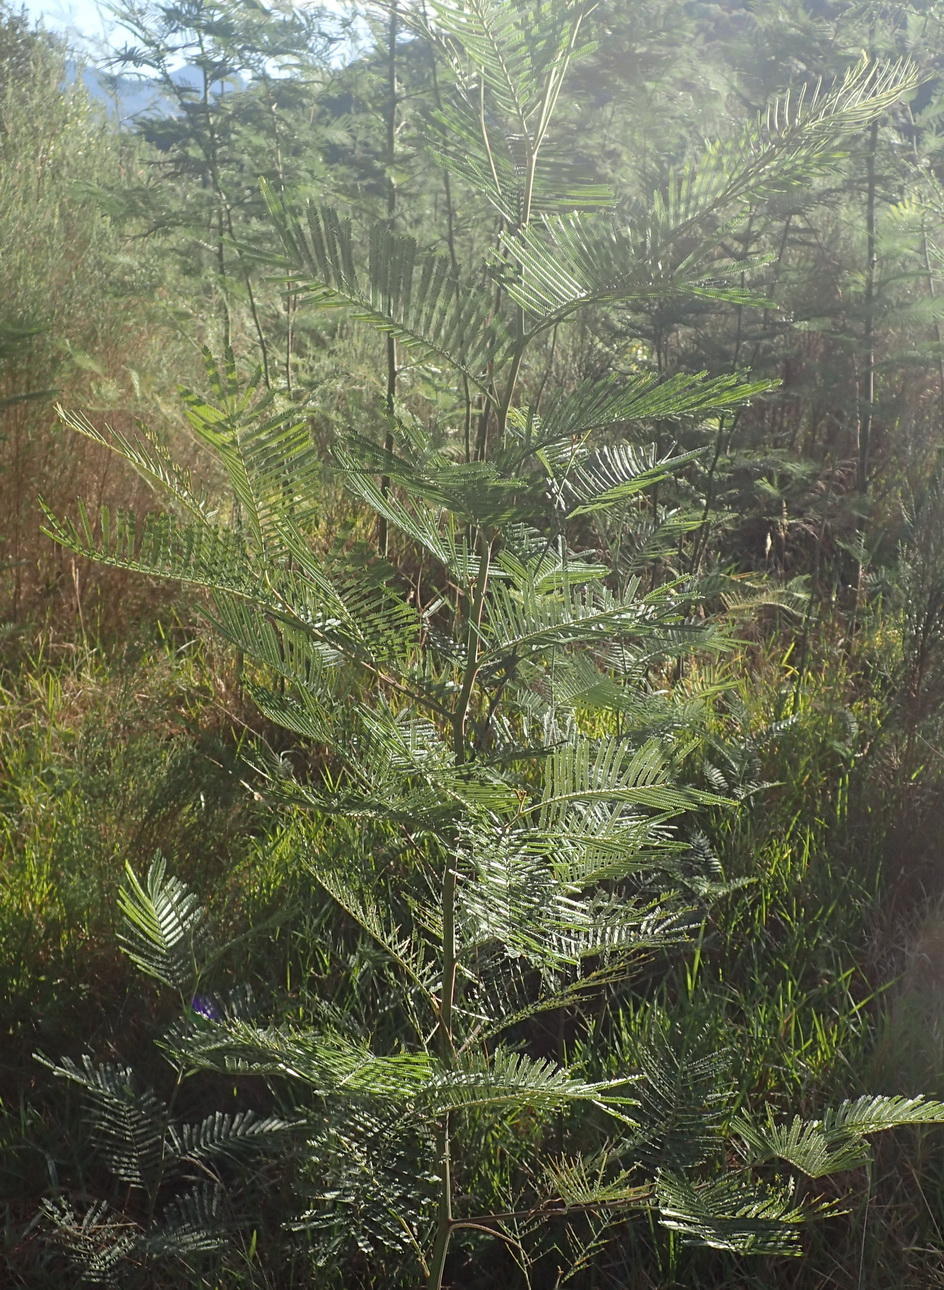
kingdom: Plantae
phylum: Tracheophyta
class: Magnoliopsida
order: Fabales
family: Fabaceae
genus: Acacia
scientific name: Acacia mearnsii
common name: Black wattle
